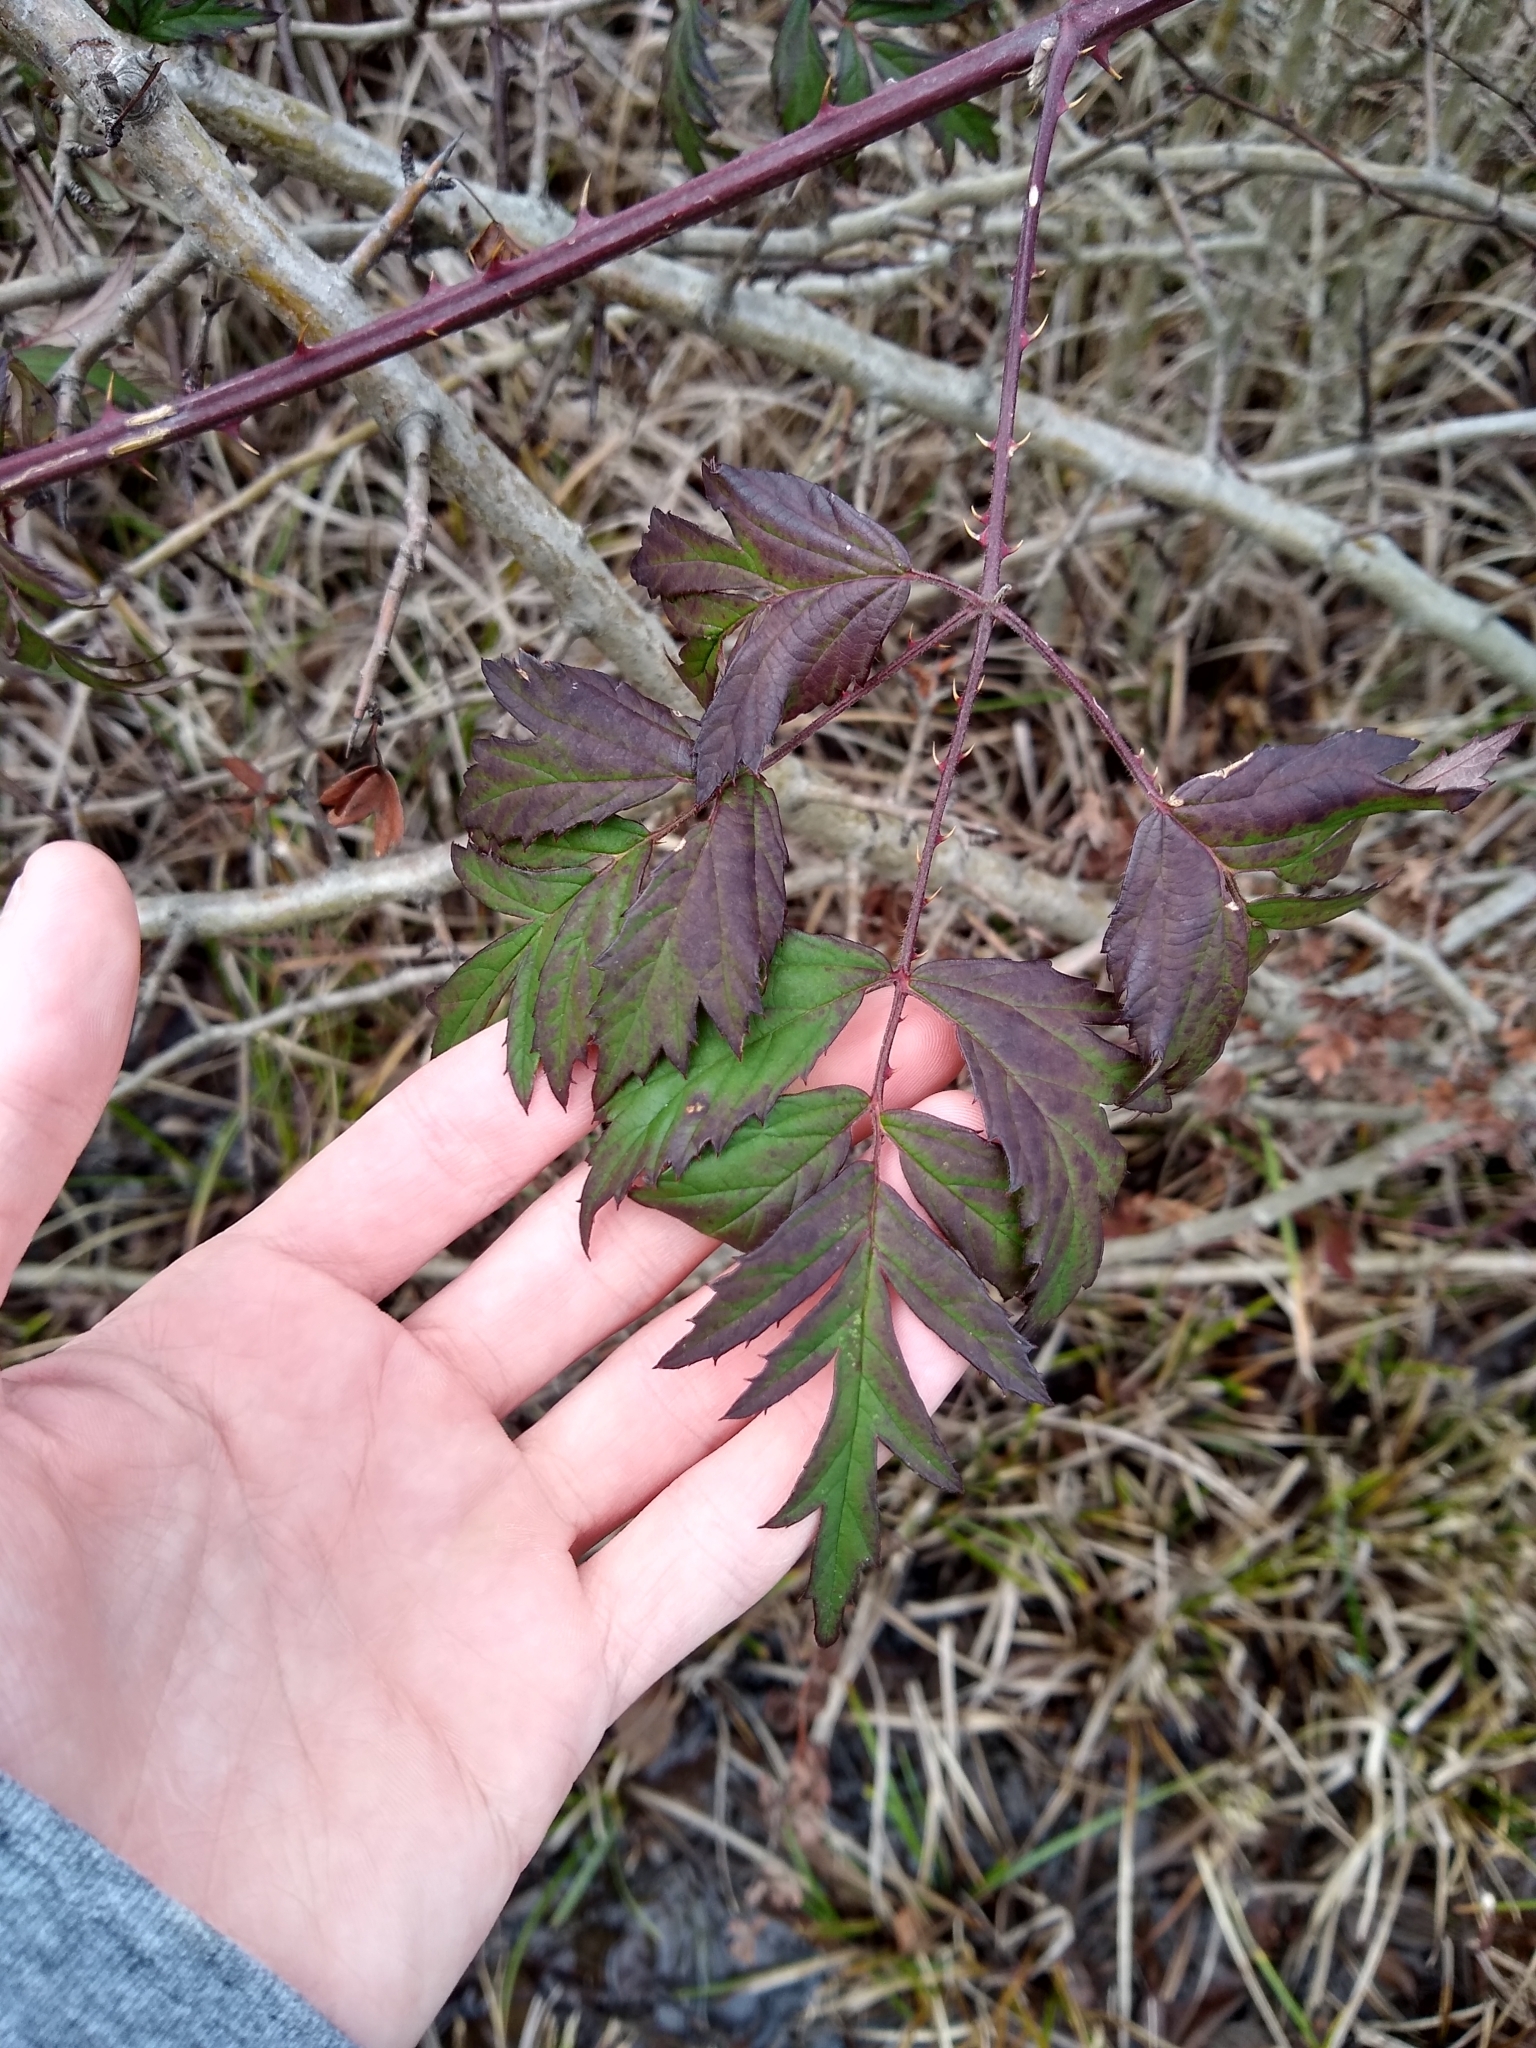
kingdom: Plantae
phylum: Tracheophyta
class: Magnoliopsida
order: Rosales
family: Rosaceae
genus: Rubus
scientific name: Rubus laciniatus
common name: Evergreen blackberry
